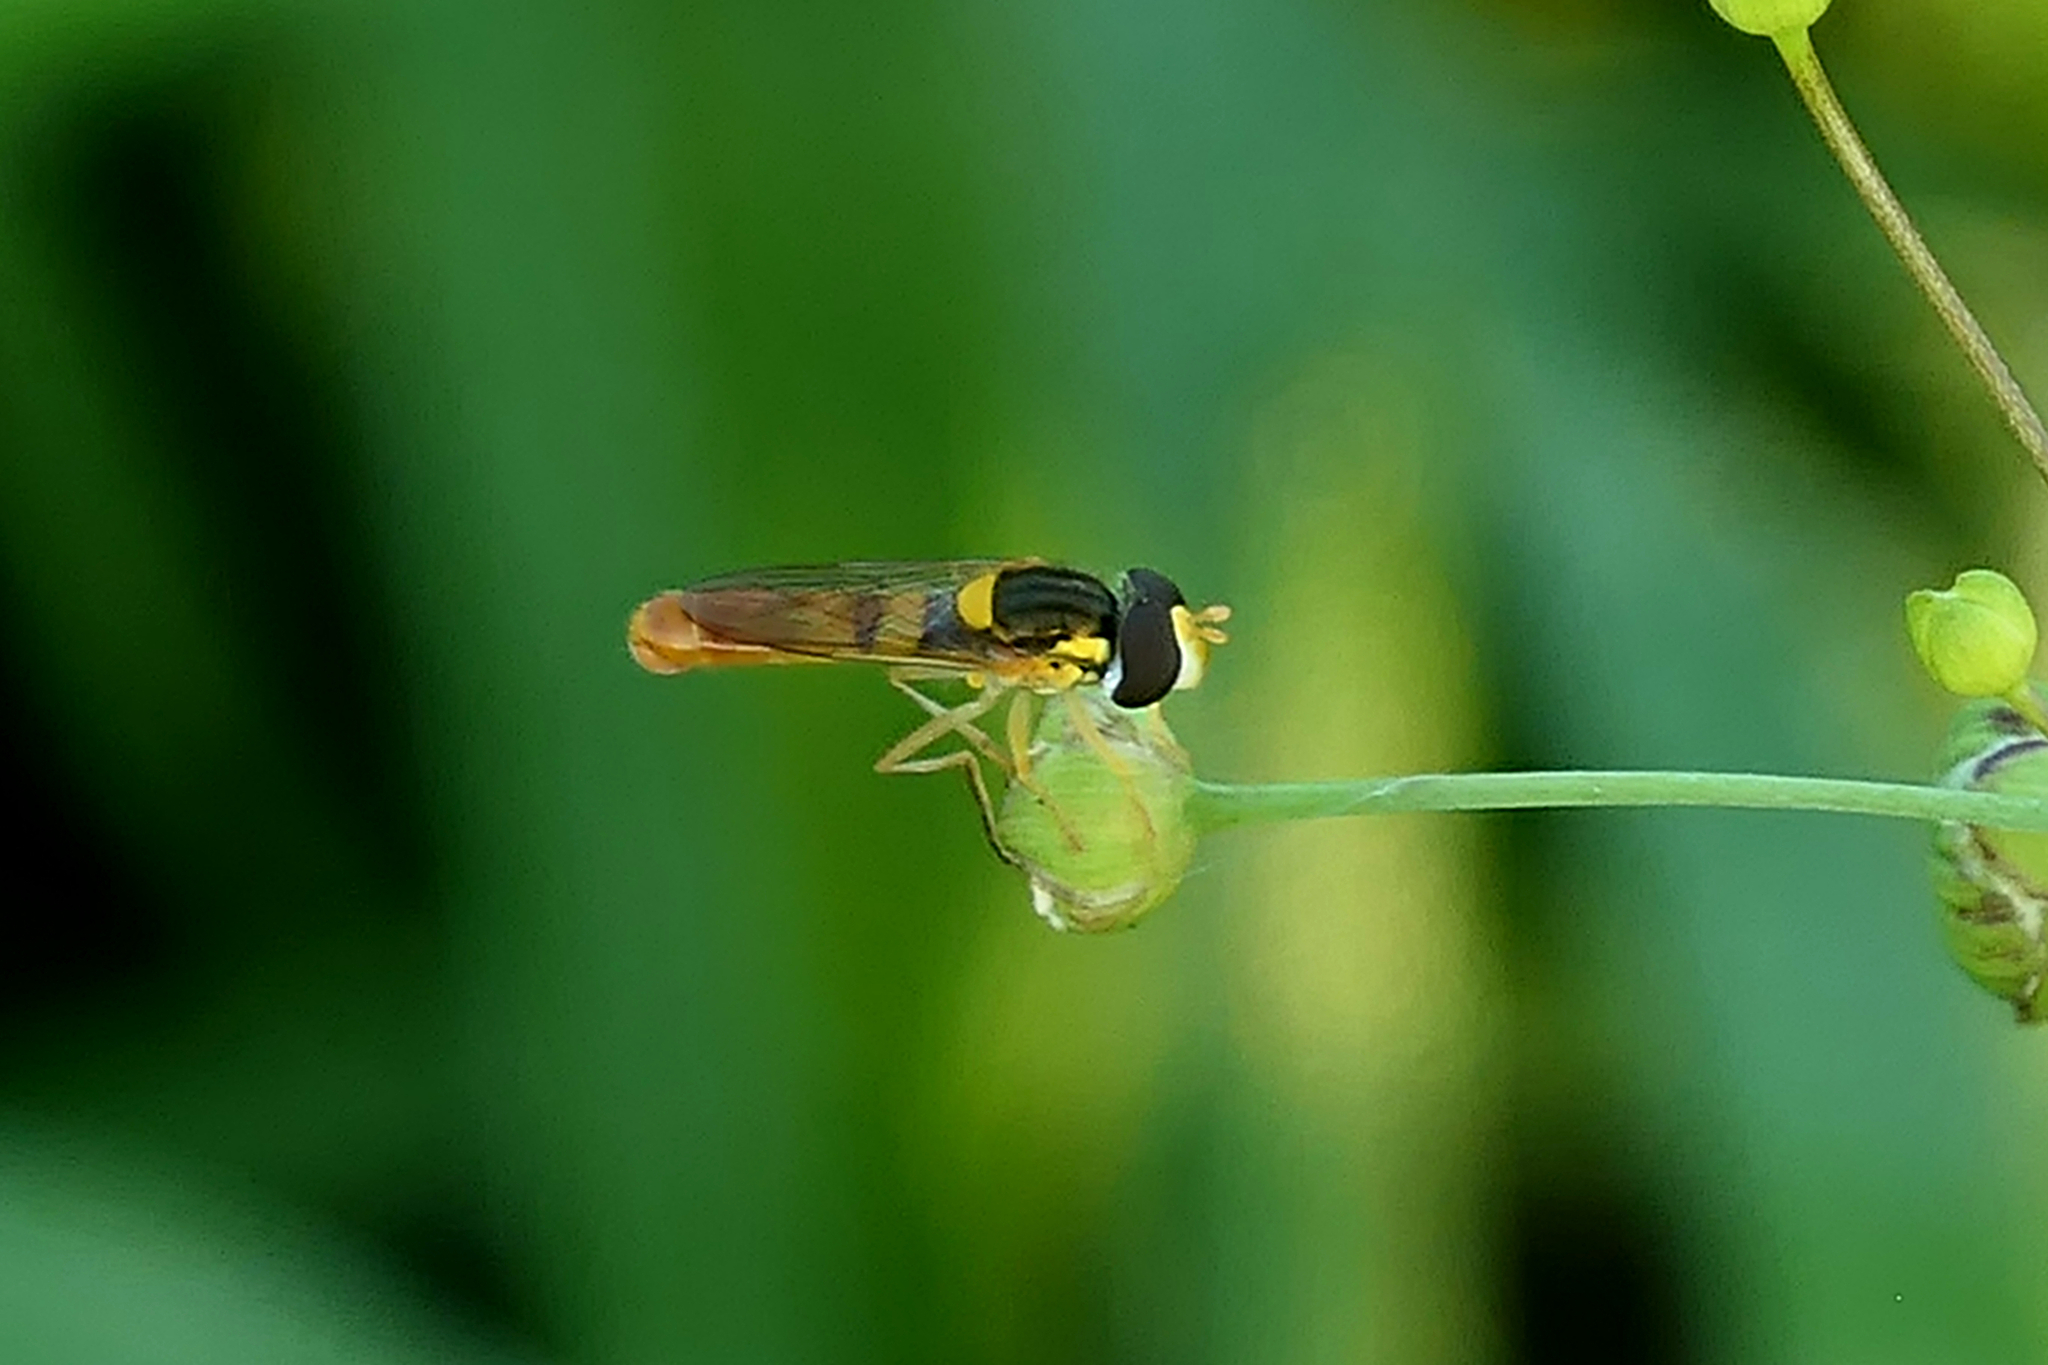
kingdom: Animalia
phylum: Arthropoda
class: Insecta
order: Diptera
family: Syrphidae
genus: Sphaerophoria
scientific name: Sphaerophoria contigua
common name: Tufted globetail
